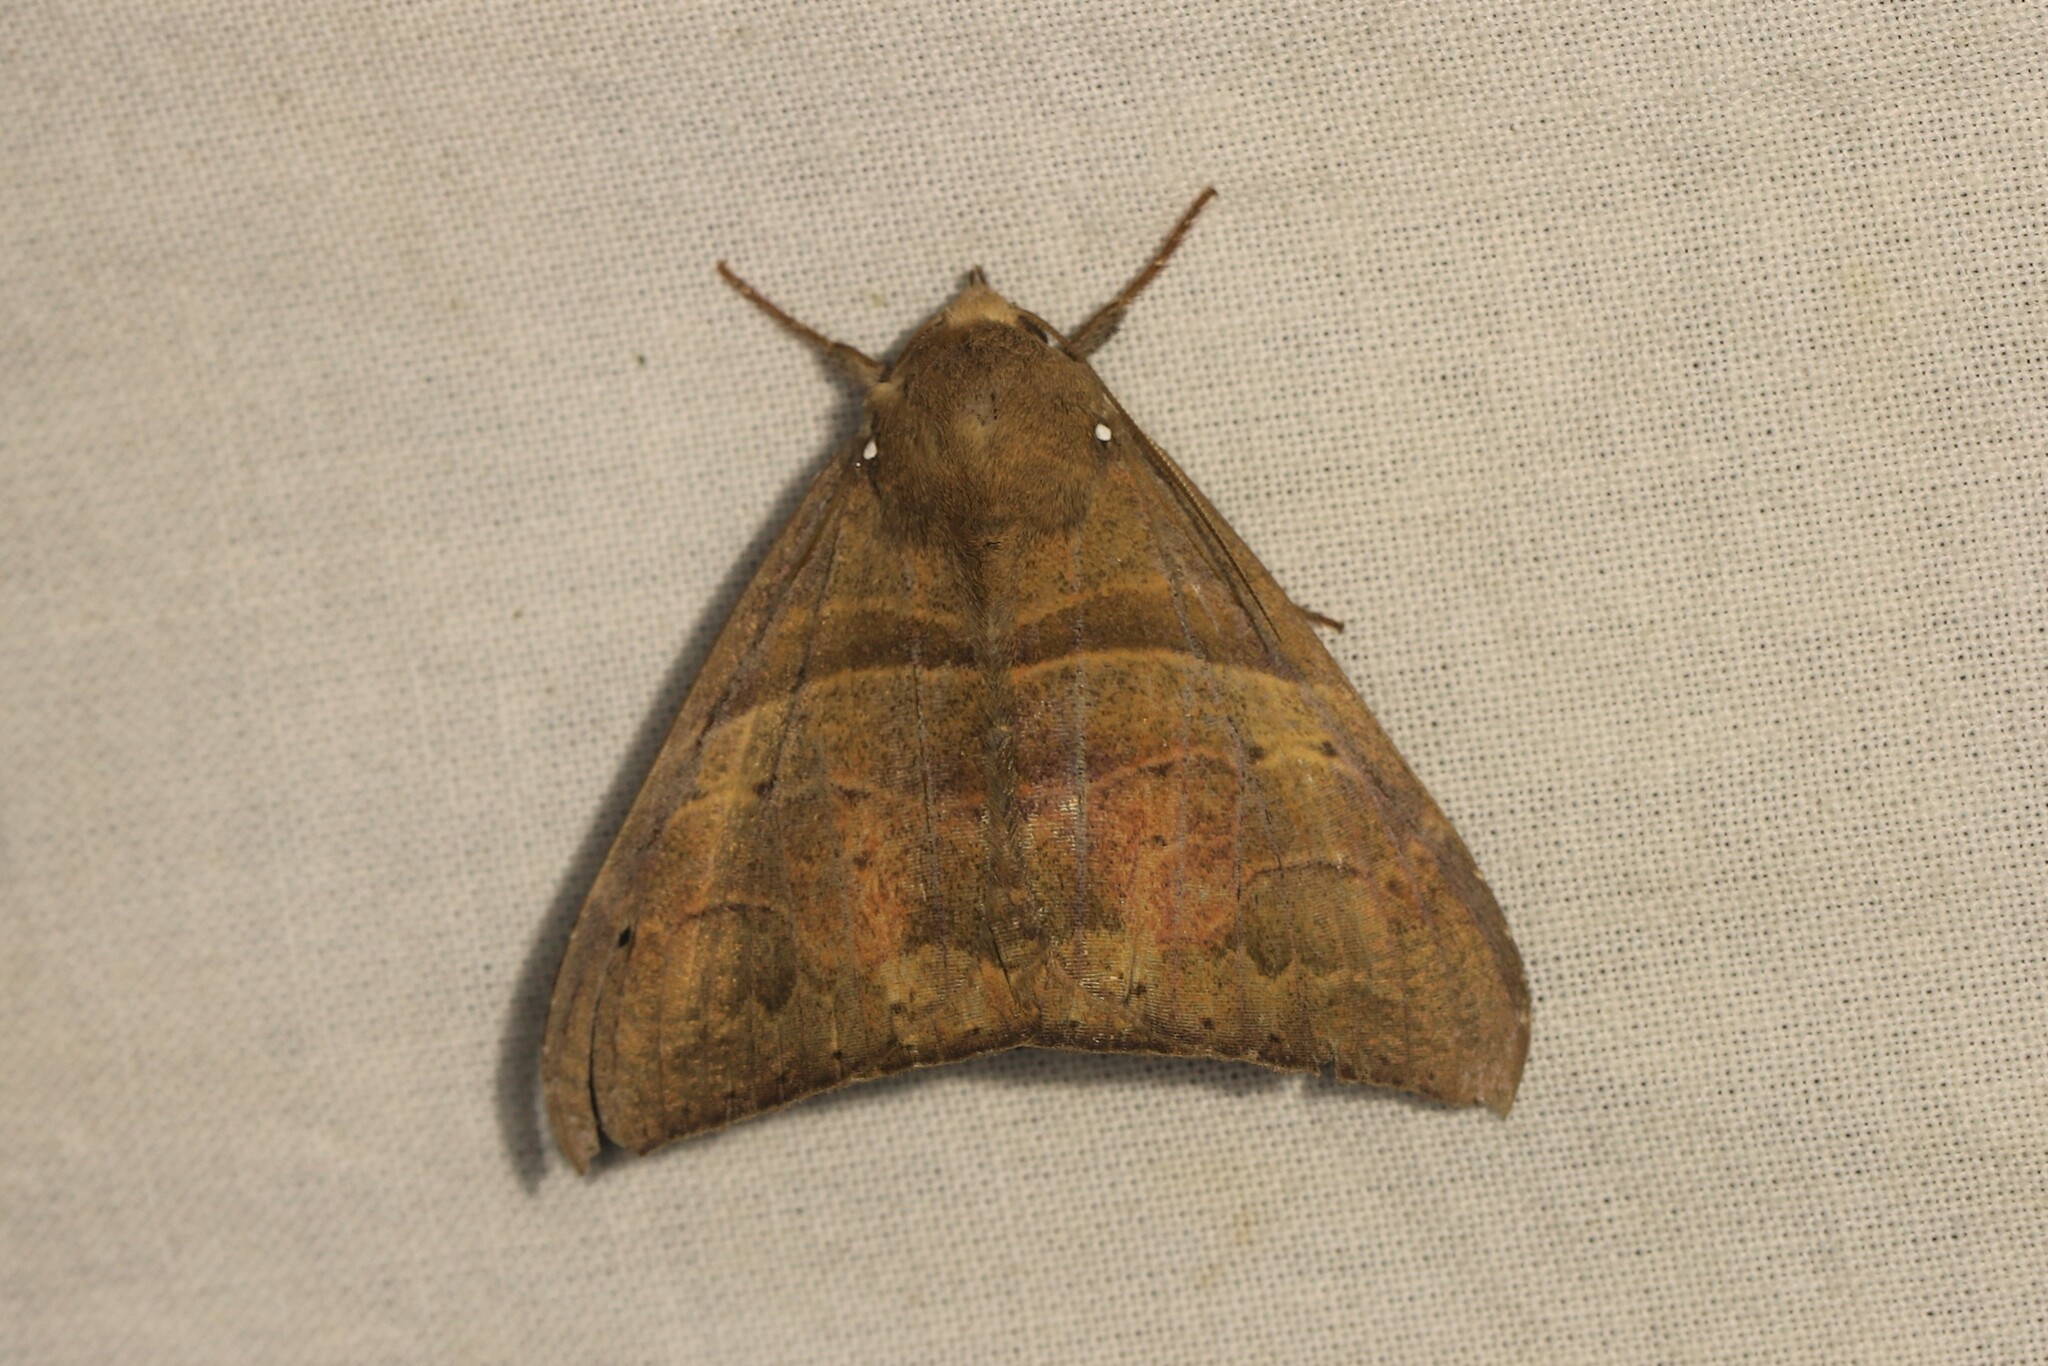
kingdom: Animalia
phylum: Arthropoda
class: Insecta
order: Lepidoptera
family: Erebidae
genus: Neophisma
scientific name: Neophisma
